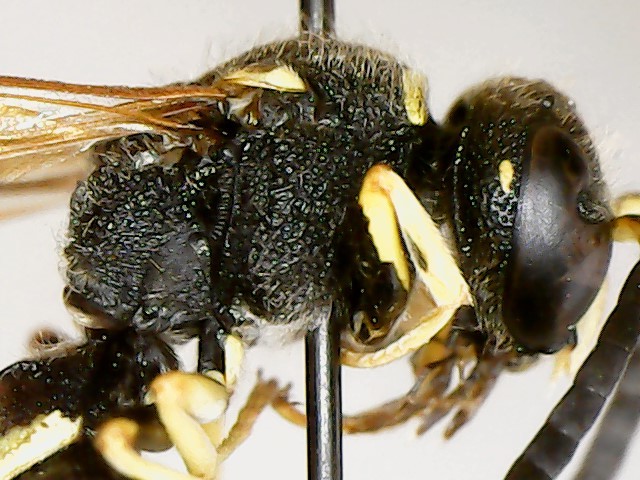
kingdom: Animalia
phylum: Arthropoda
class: Insecta
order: Hymenoptera
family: Vespidae
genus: Ancistrocerus
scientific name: Ancistrocerus albophaleratus
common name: White-banded potter wasp
